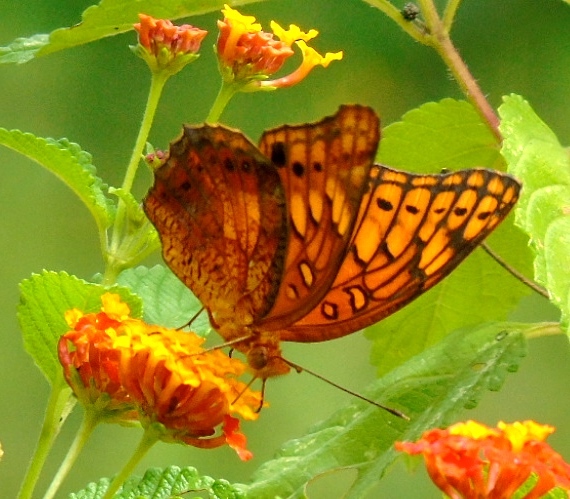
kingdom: Animalia
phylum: Arthropoda
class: Insecta
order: Lepidoptera
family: Nymphalidae
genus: Euptoieta
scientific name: Euptoieta hegesia
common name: Mexican fritillary
